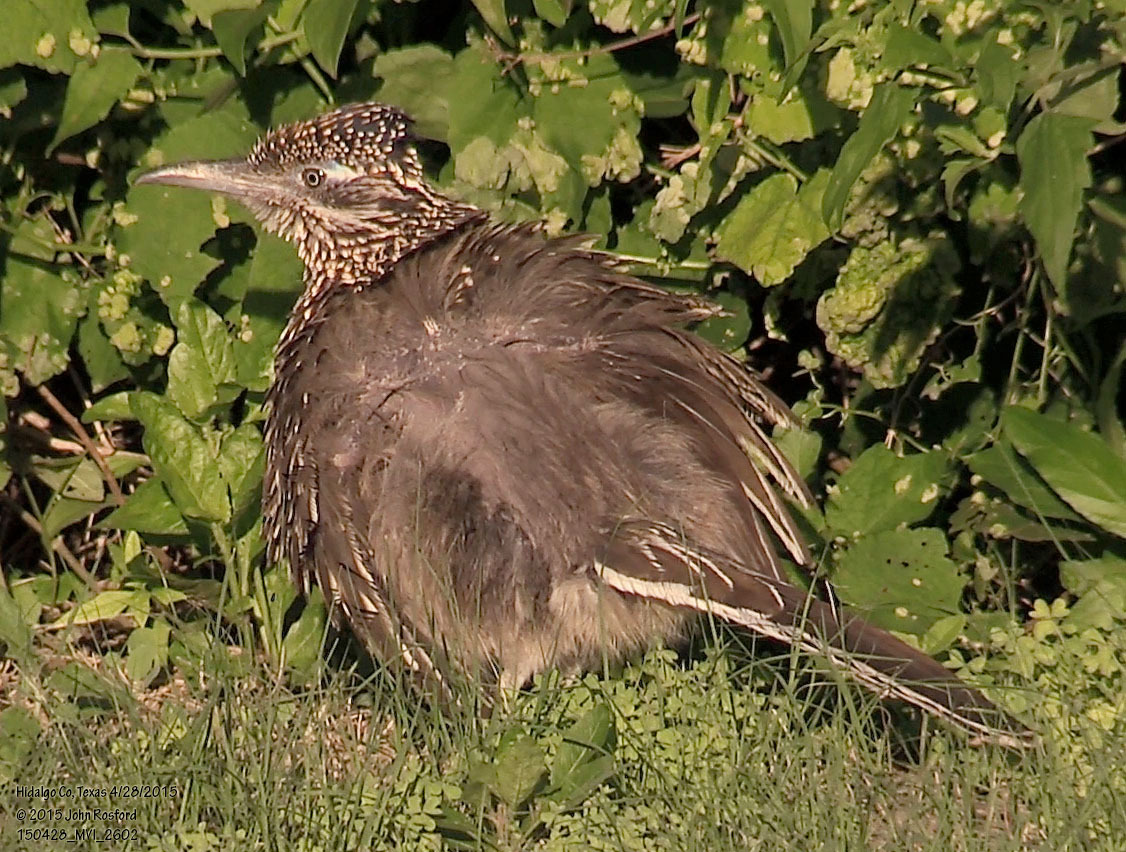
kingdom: Animalia
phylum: Chordata
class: Aves
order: Cuculiformes
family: Cuculidae
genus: Geococcyx
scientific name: Geococcyx californianus
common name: Greater roadrunner
